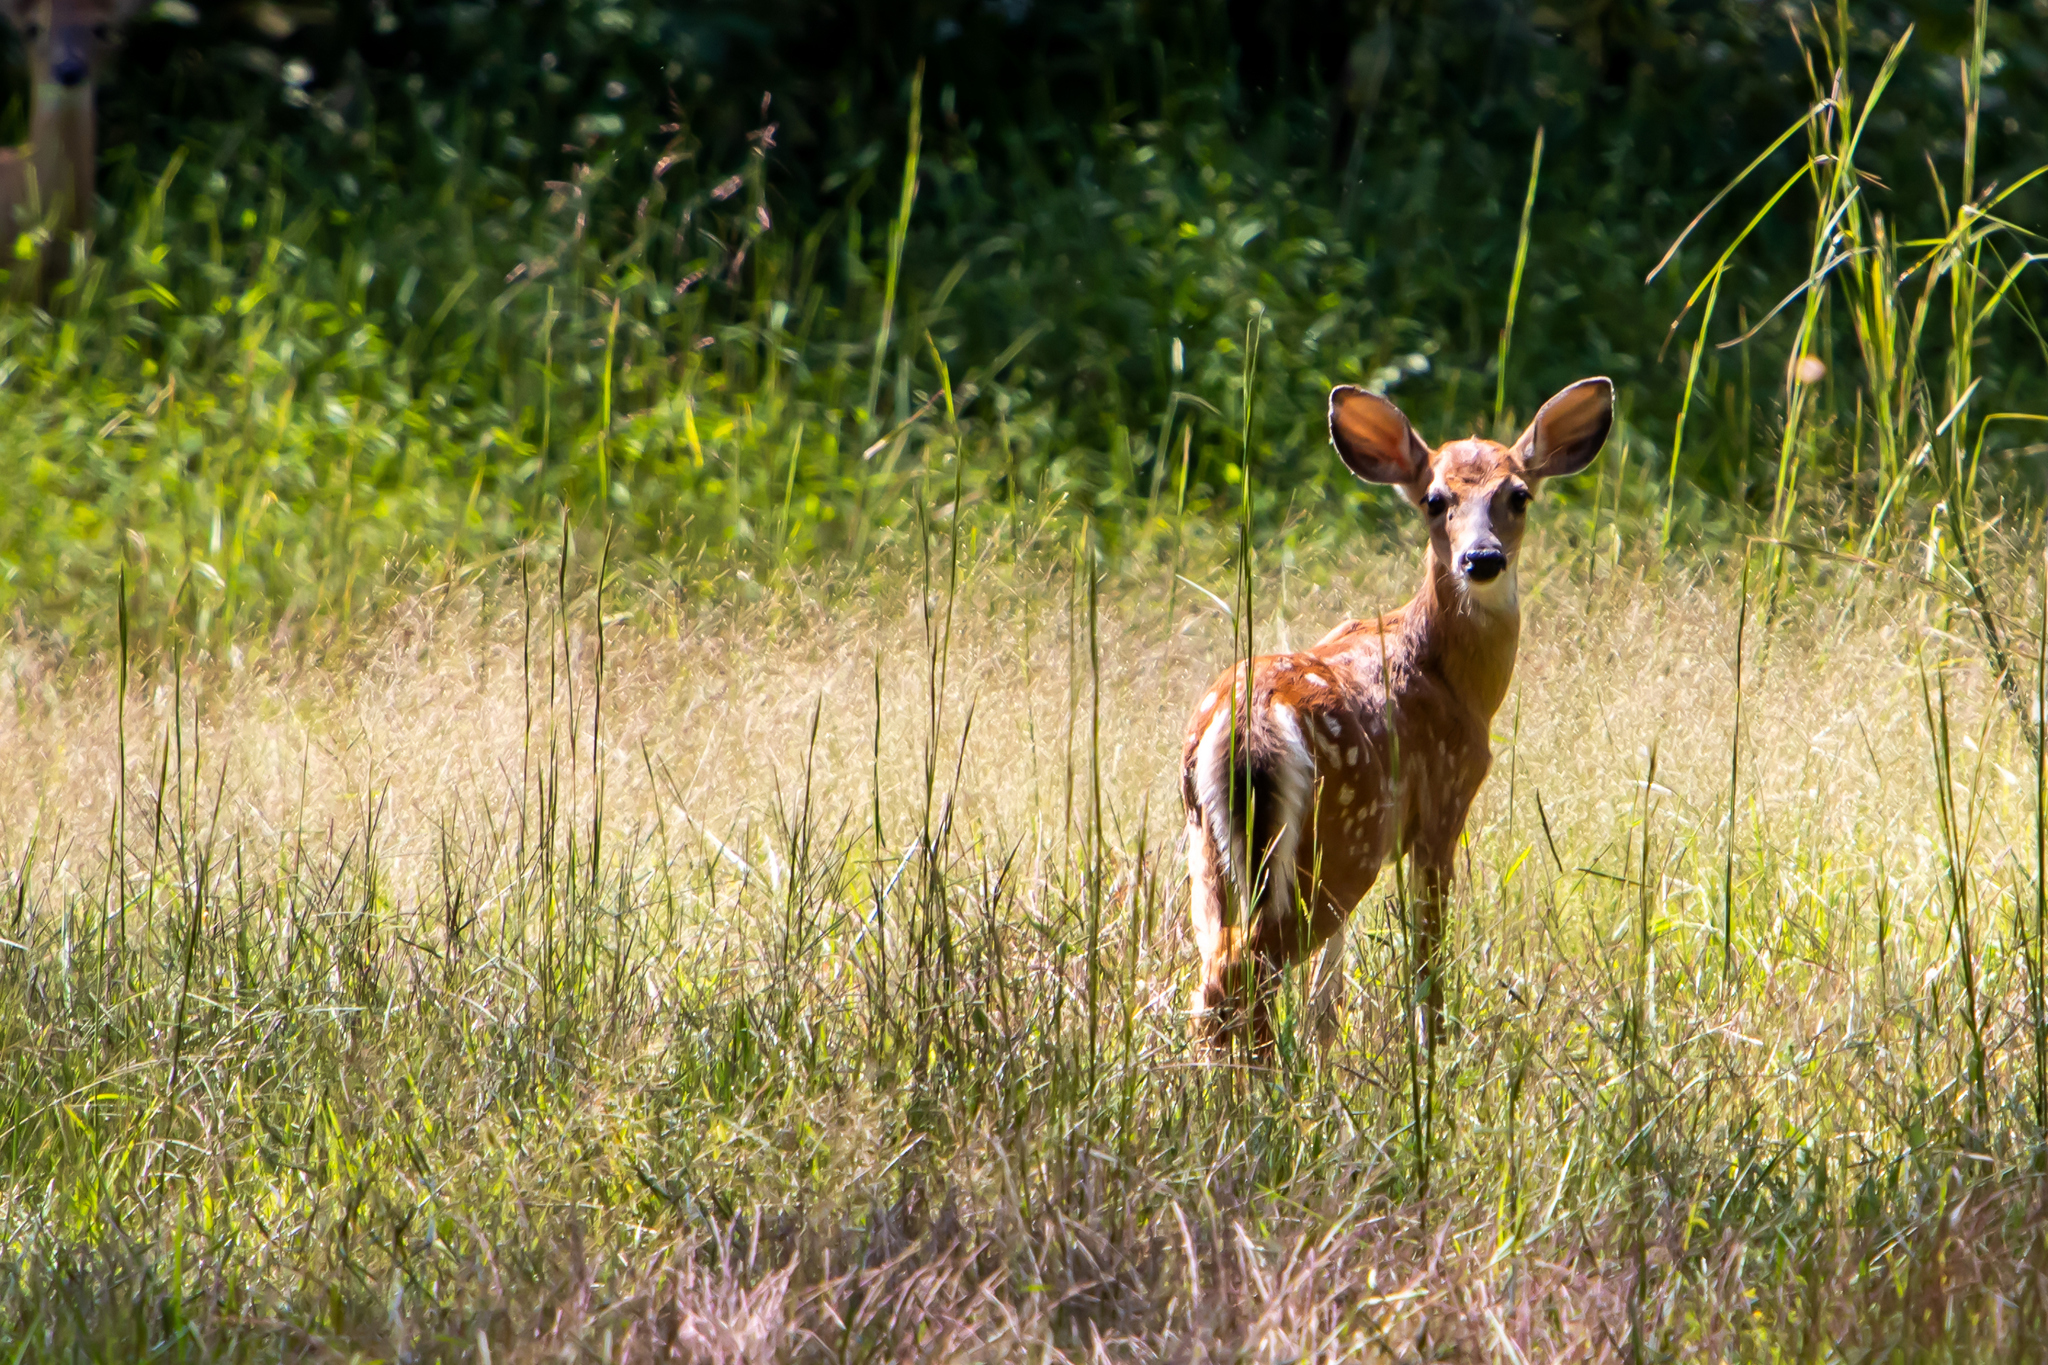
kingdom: Animalia
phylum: Chordata
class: Mammalia
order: Artiodactyla
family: Cervidae
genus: Odocoileus
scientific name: Odocoileus virginianus
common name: White-tailed deer
